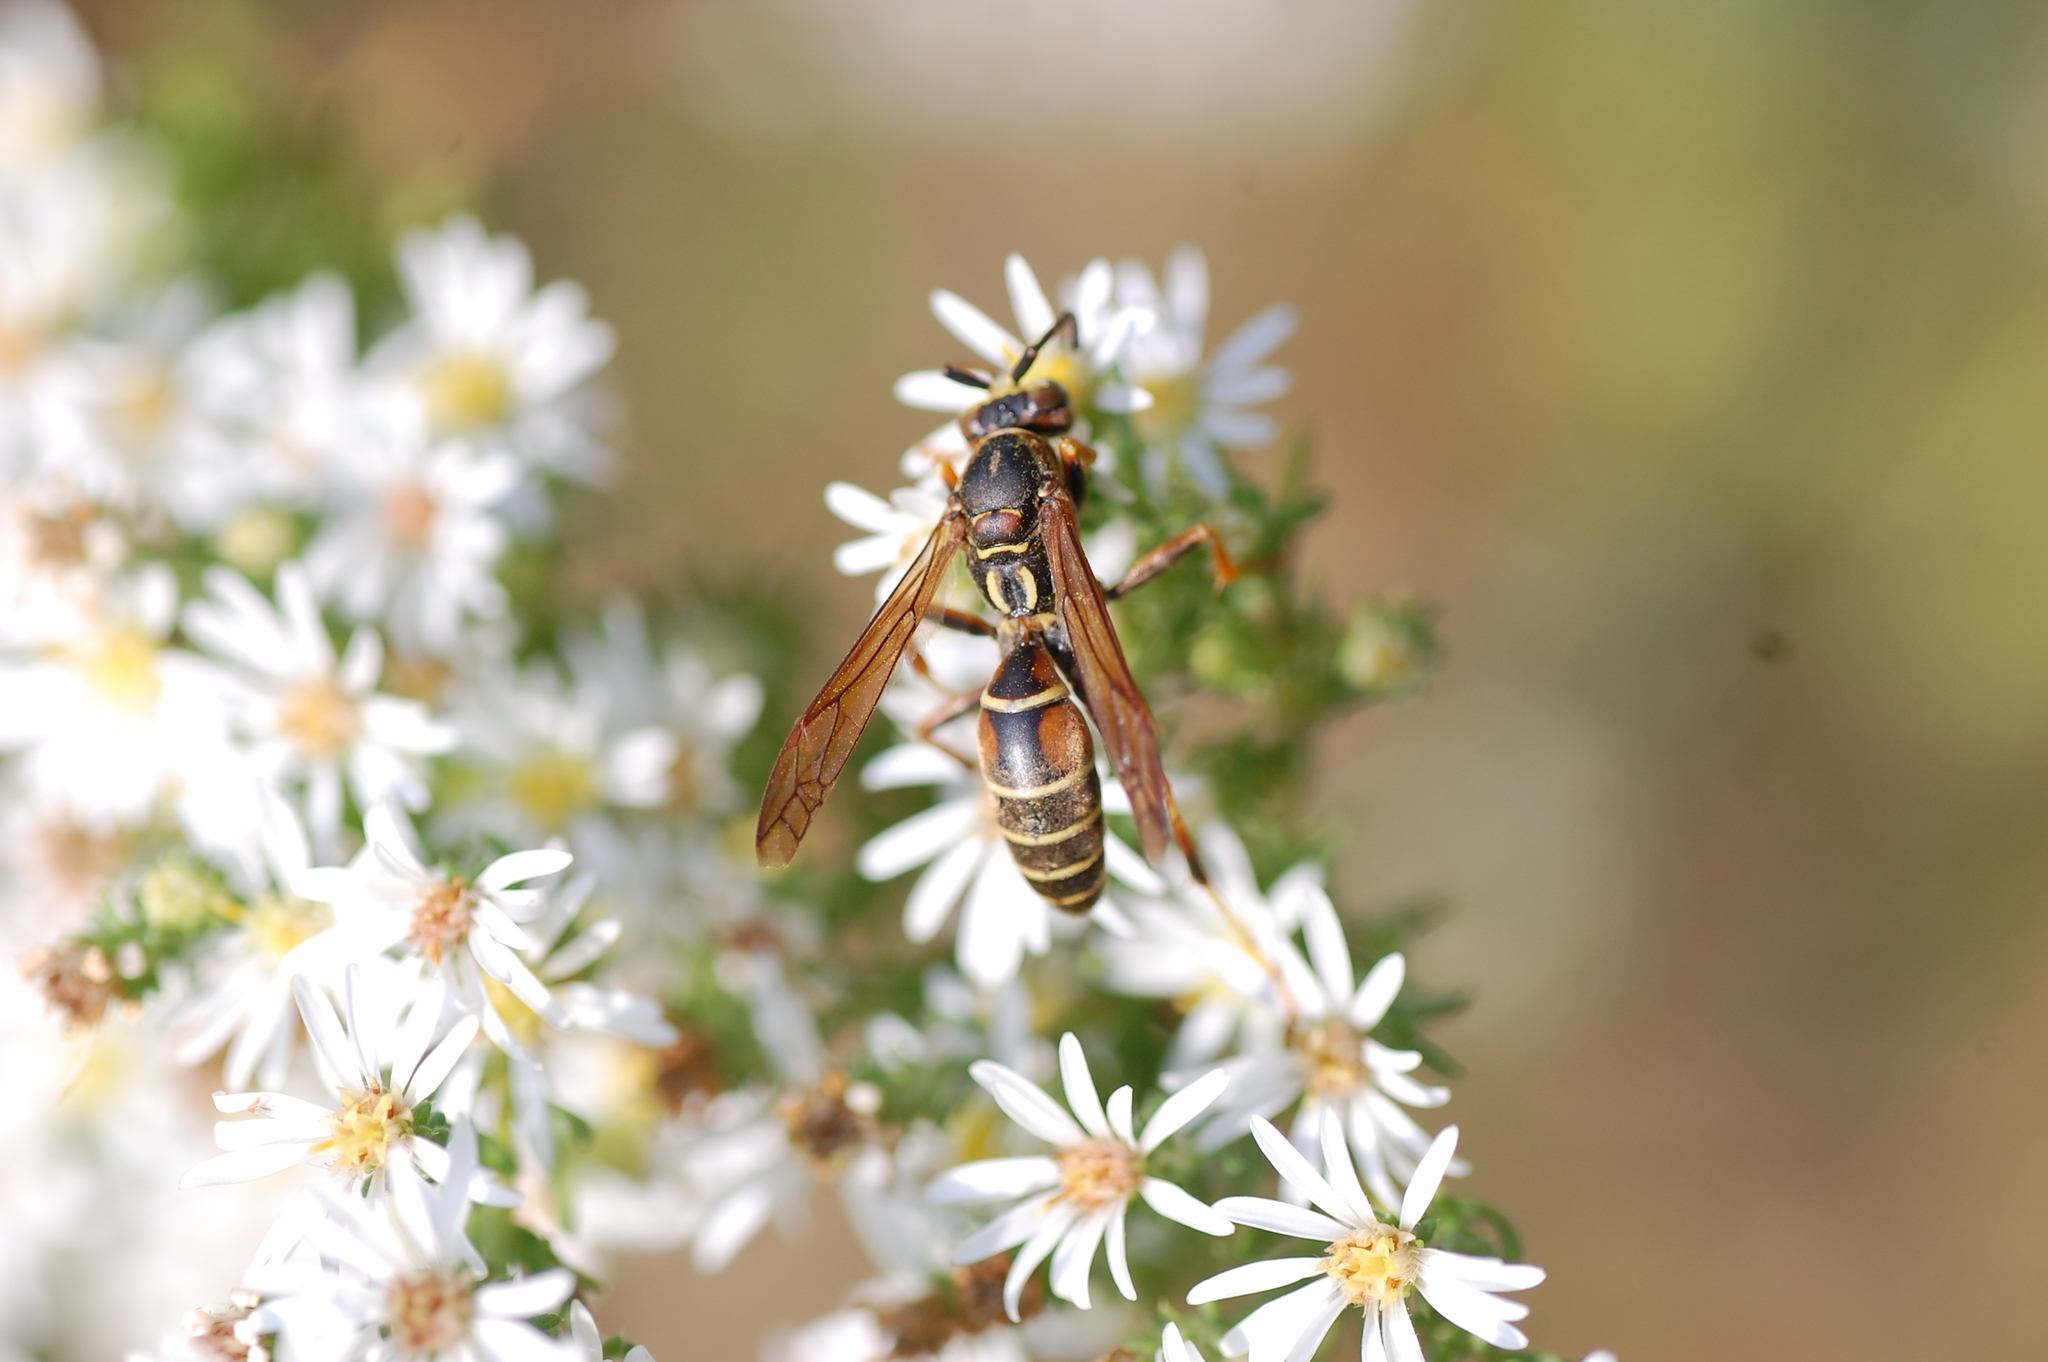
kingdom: Animalia
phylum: Arthropoda
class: Insecta
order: Hymenoptera
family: Eumenidae
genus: Polistes
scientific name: Polistes fuscatus
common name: Dark paper wasp
